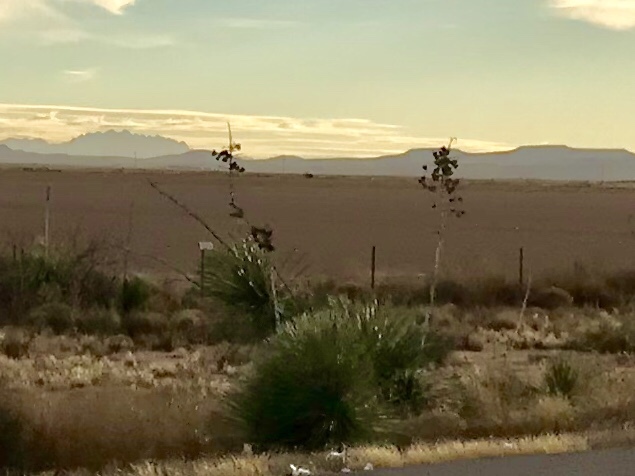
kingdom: Plantae
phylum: Tracheophyta
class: Liliopsida
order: Asparagales
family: Asparagaceae
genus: Yucca
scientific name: Yucca elata
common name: Palmella
